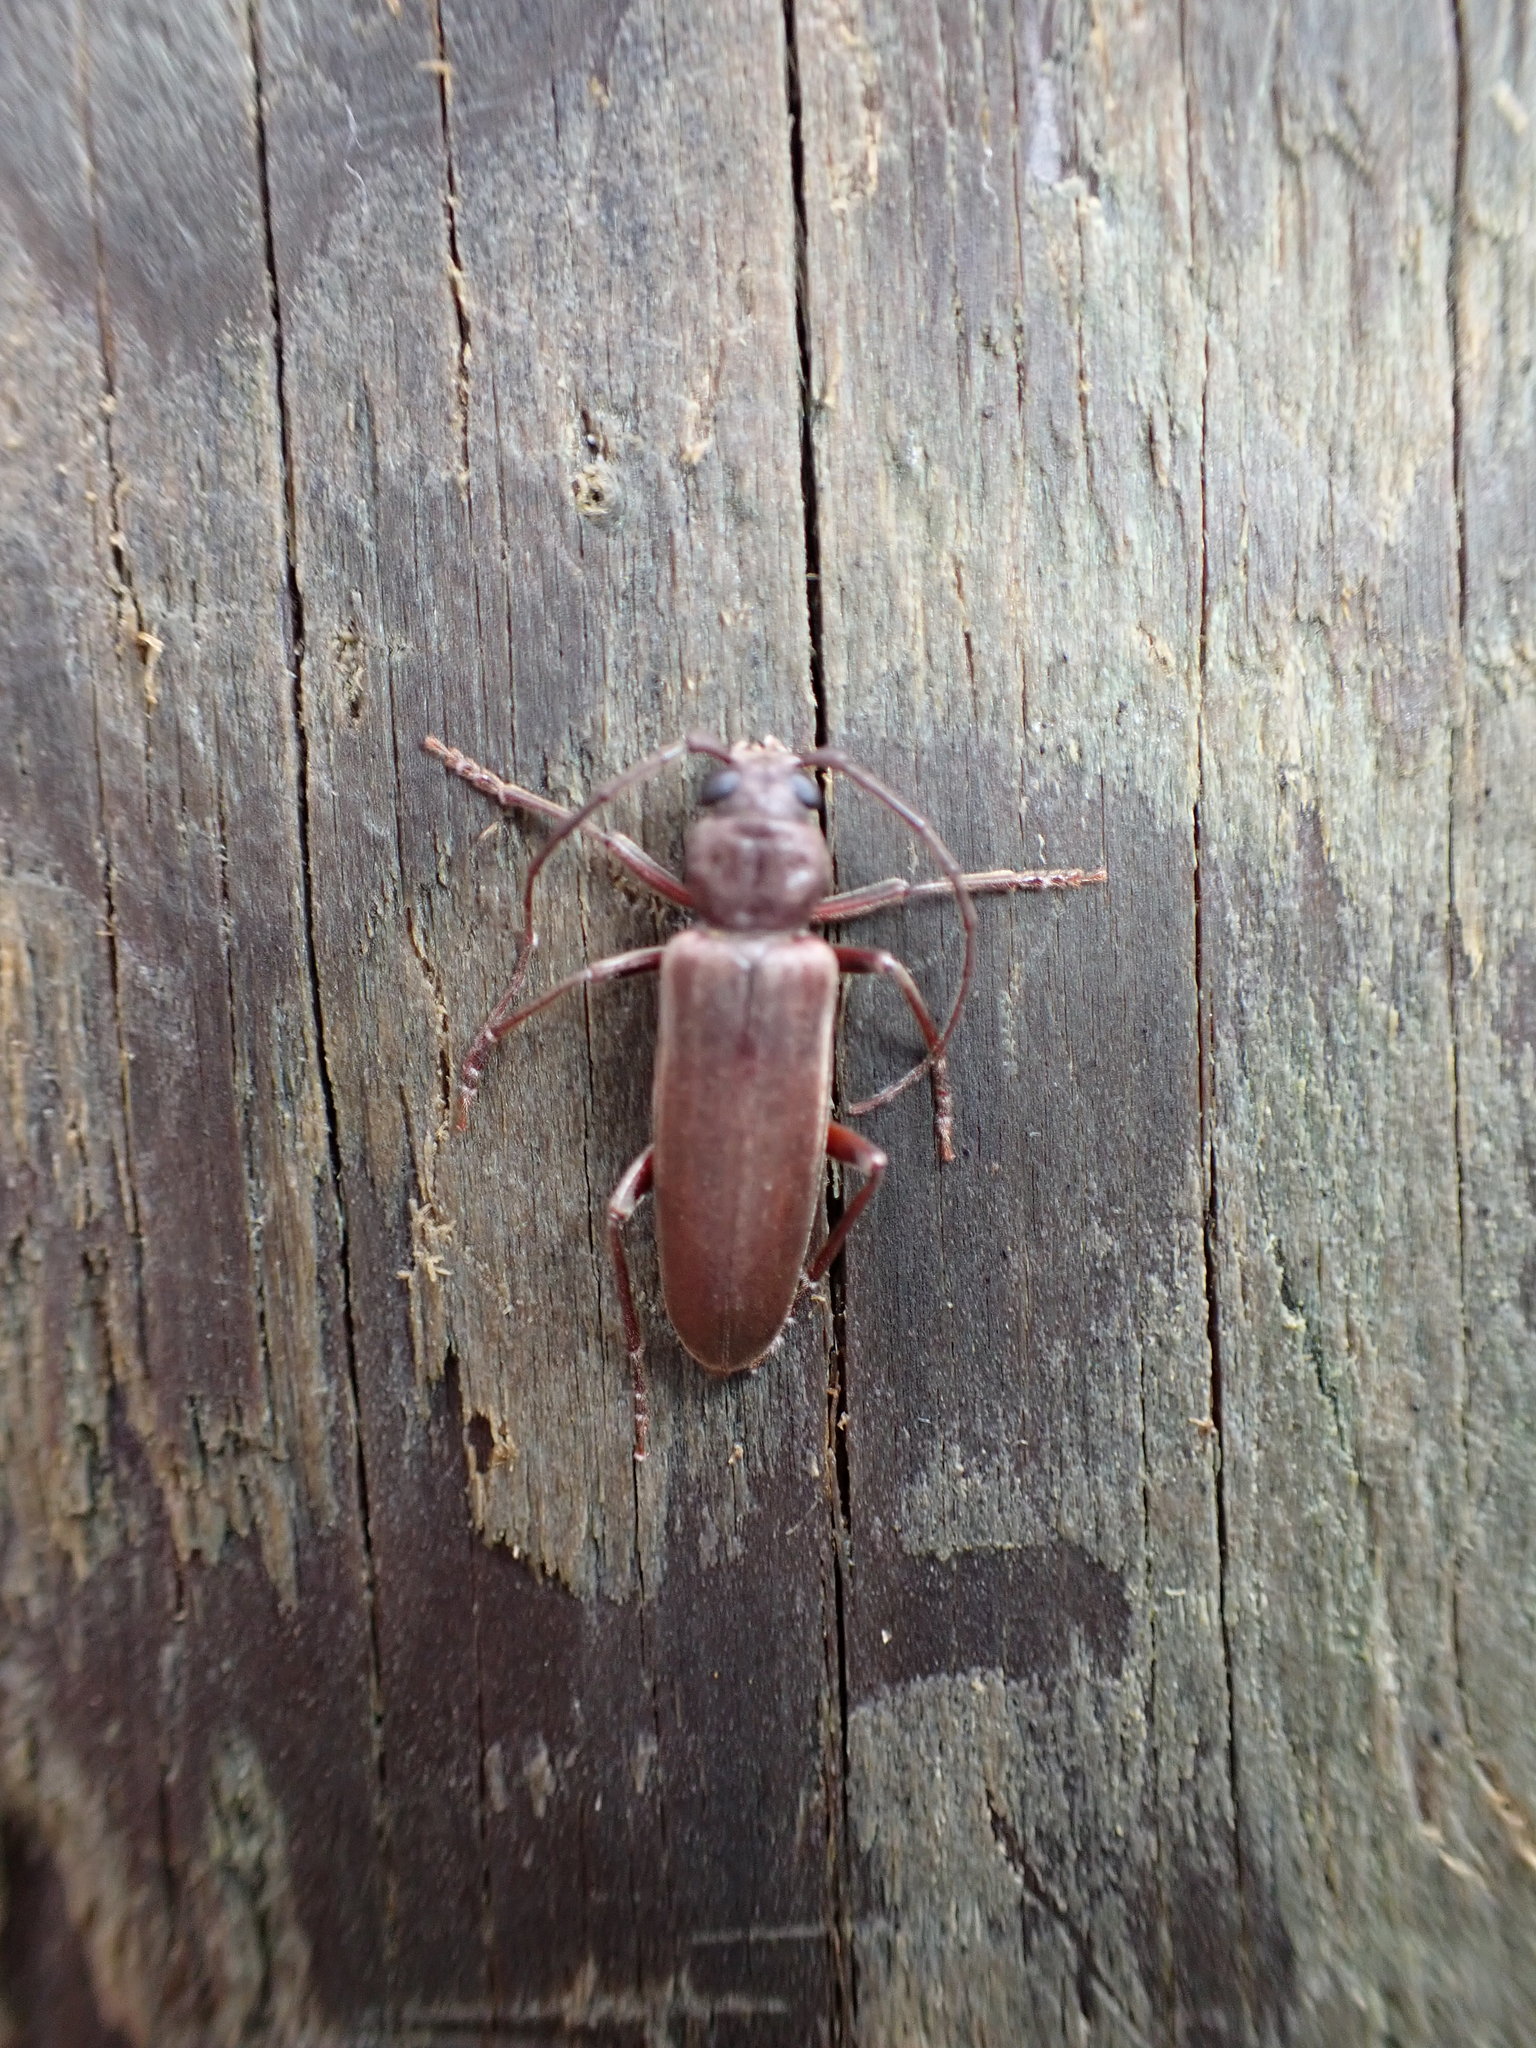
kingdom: Animalia
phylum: Arthropoda
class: Insecta
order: Coleoptera
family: Cerambycidae
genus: Arhopalus
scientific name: Arhopalus ferus
